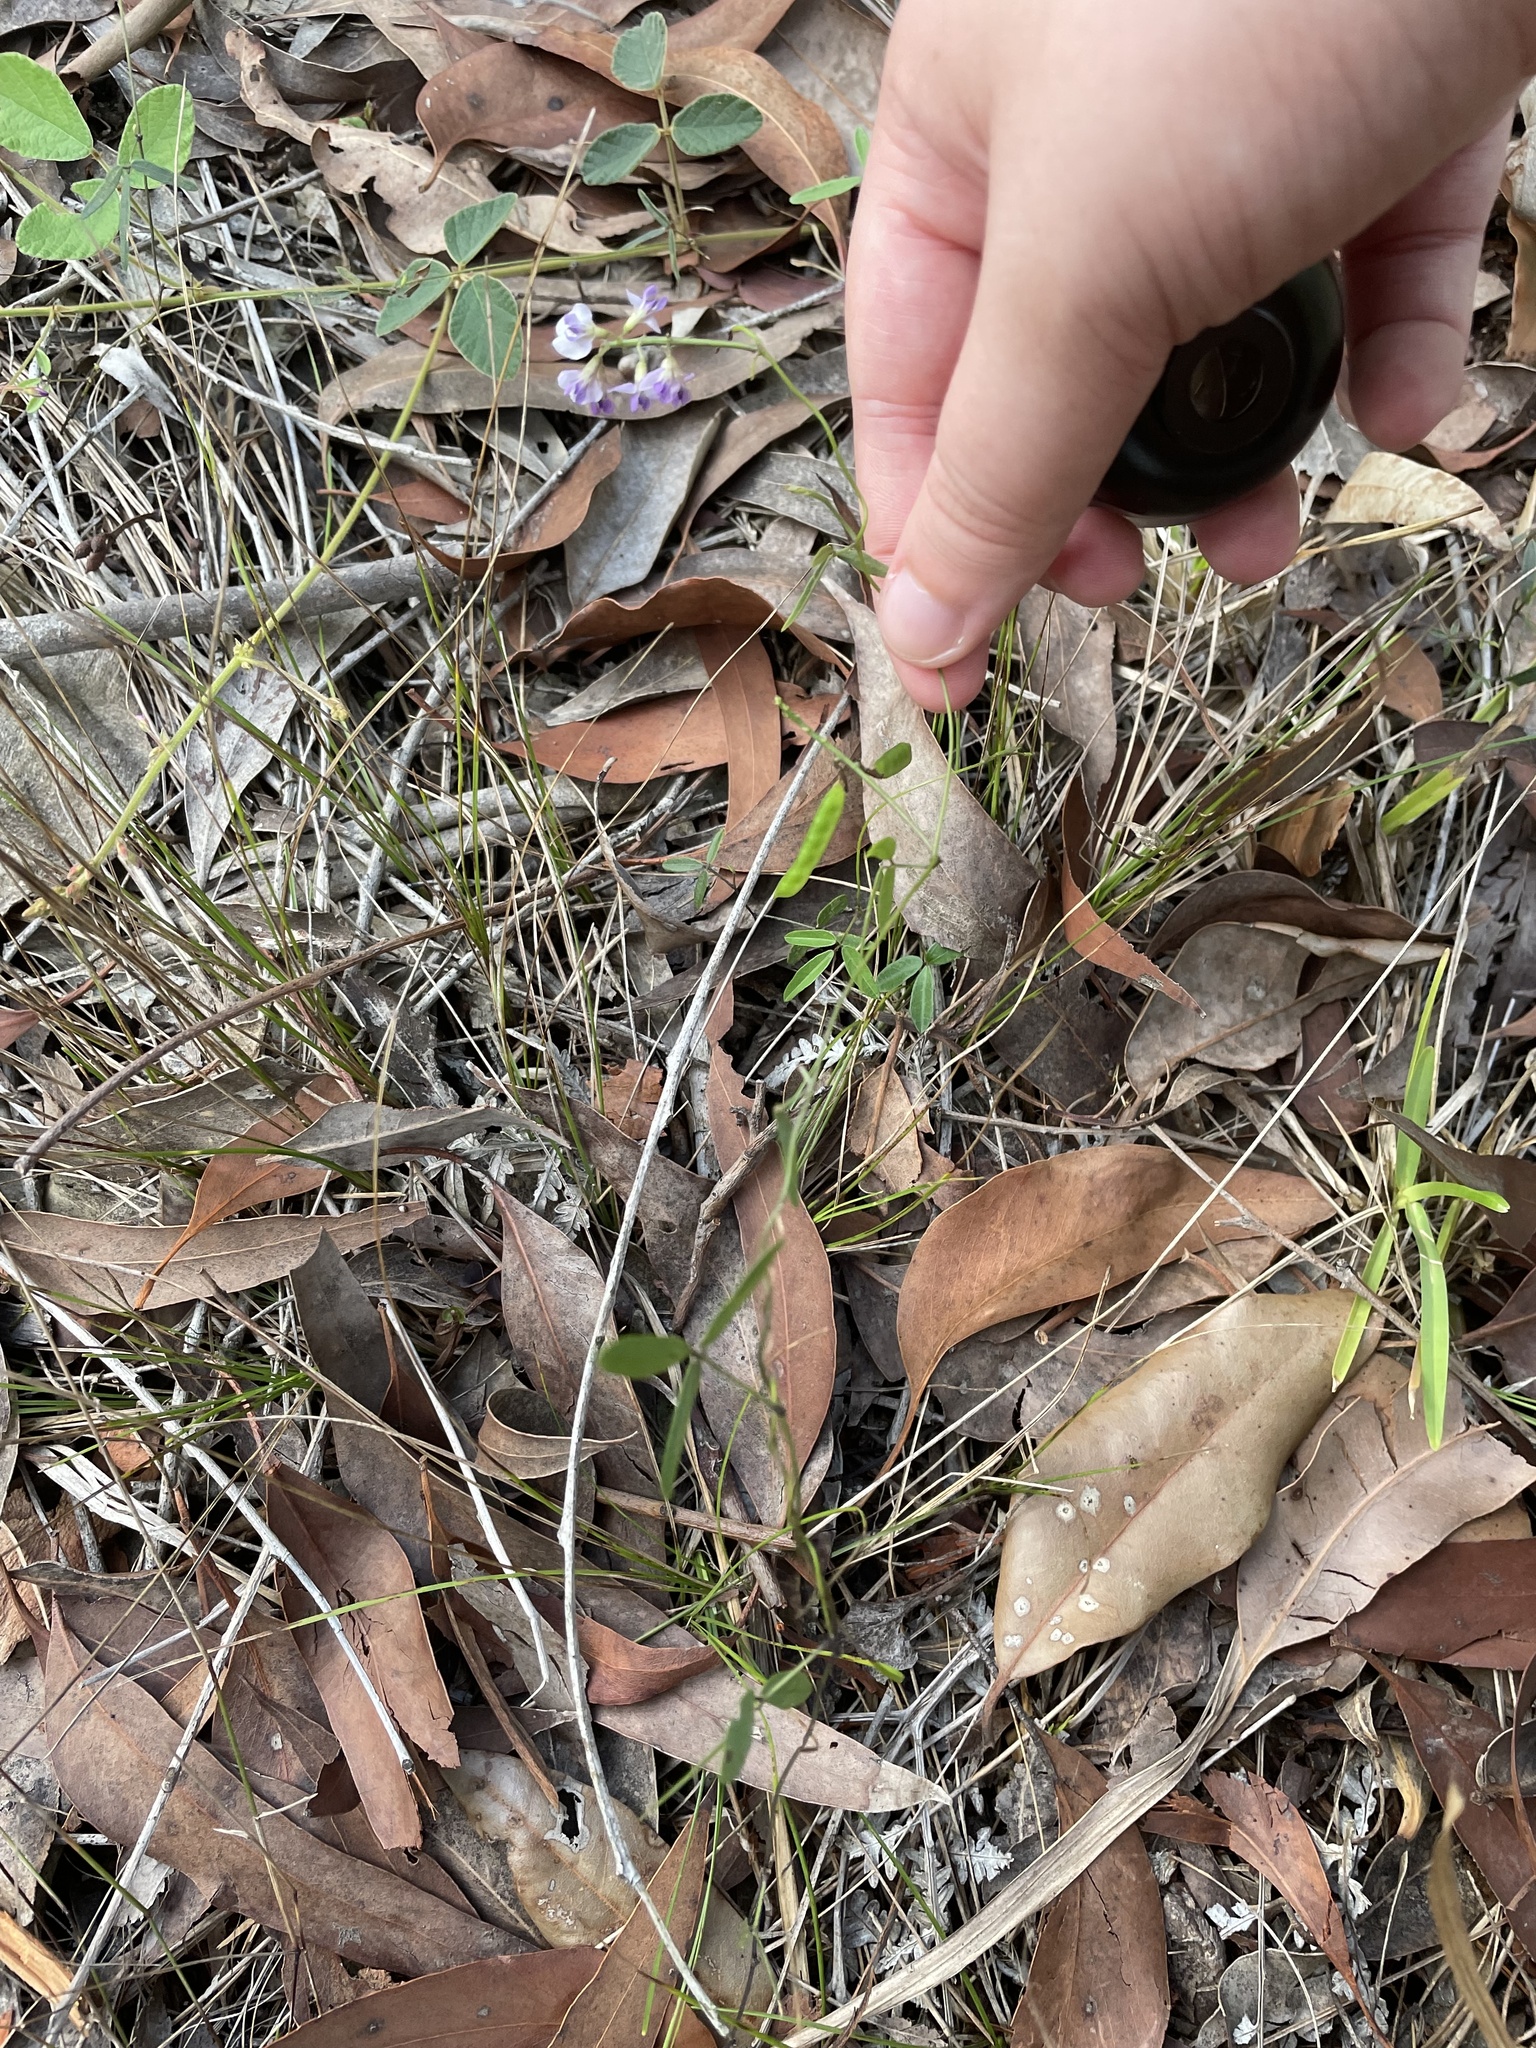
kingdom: Plantae
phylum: Tracheophyta
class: Magnoliopsida
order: Fabales
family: Fabaceae
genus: Glycine
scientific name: Glycine clandestina
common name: Twining glycine
